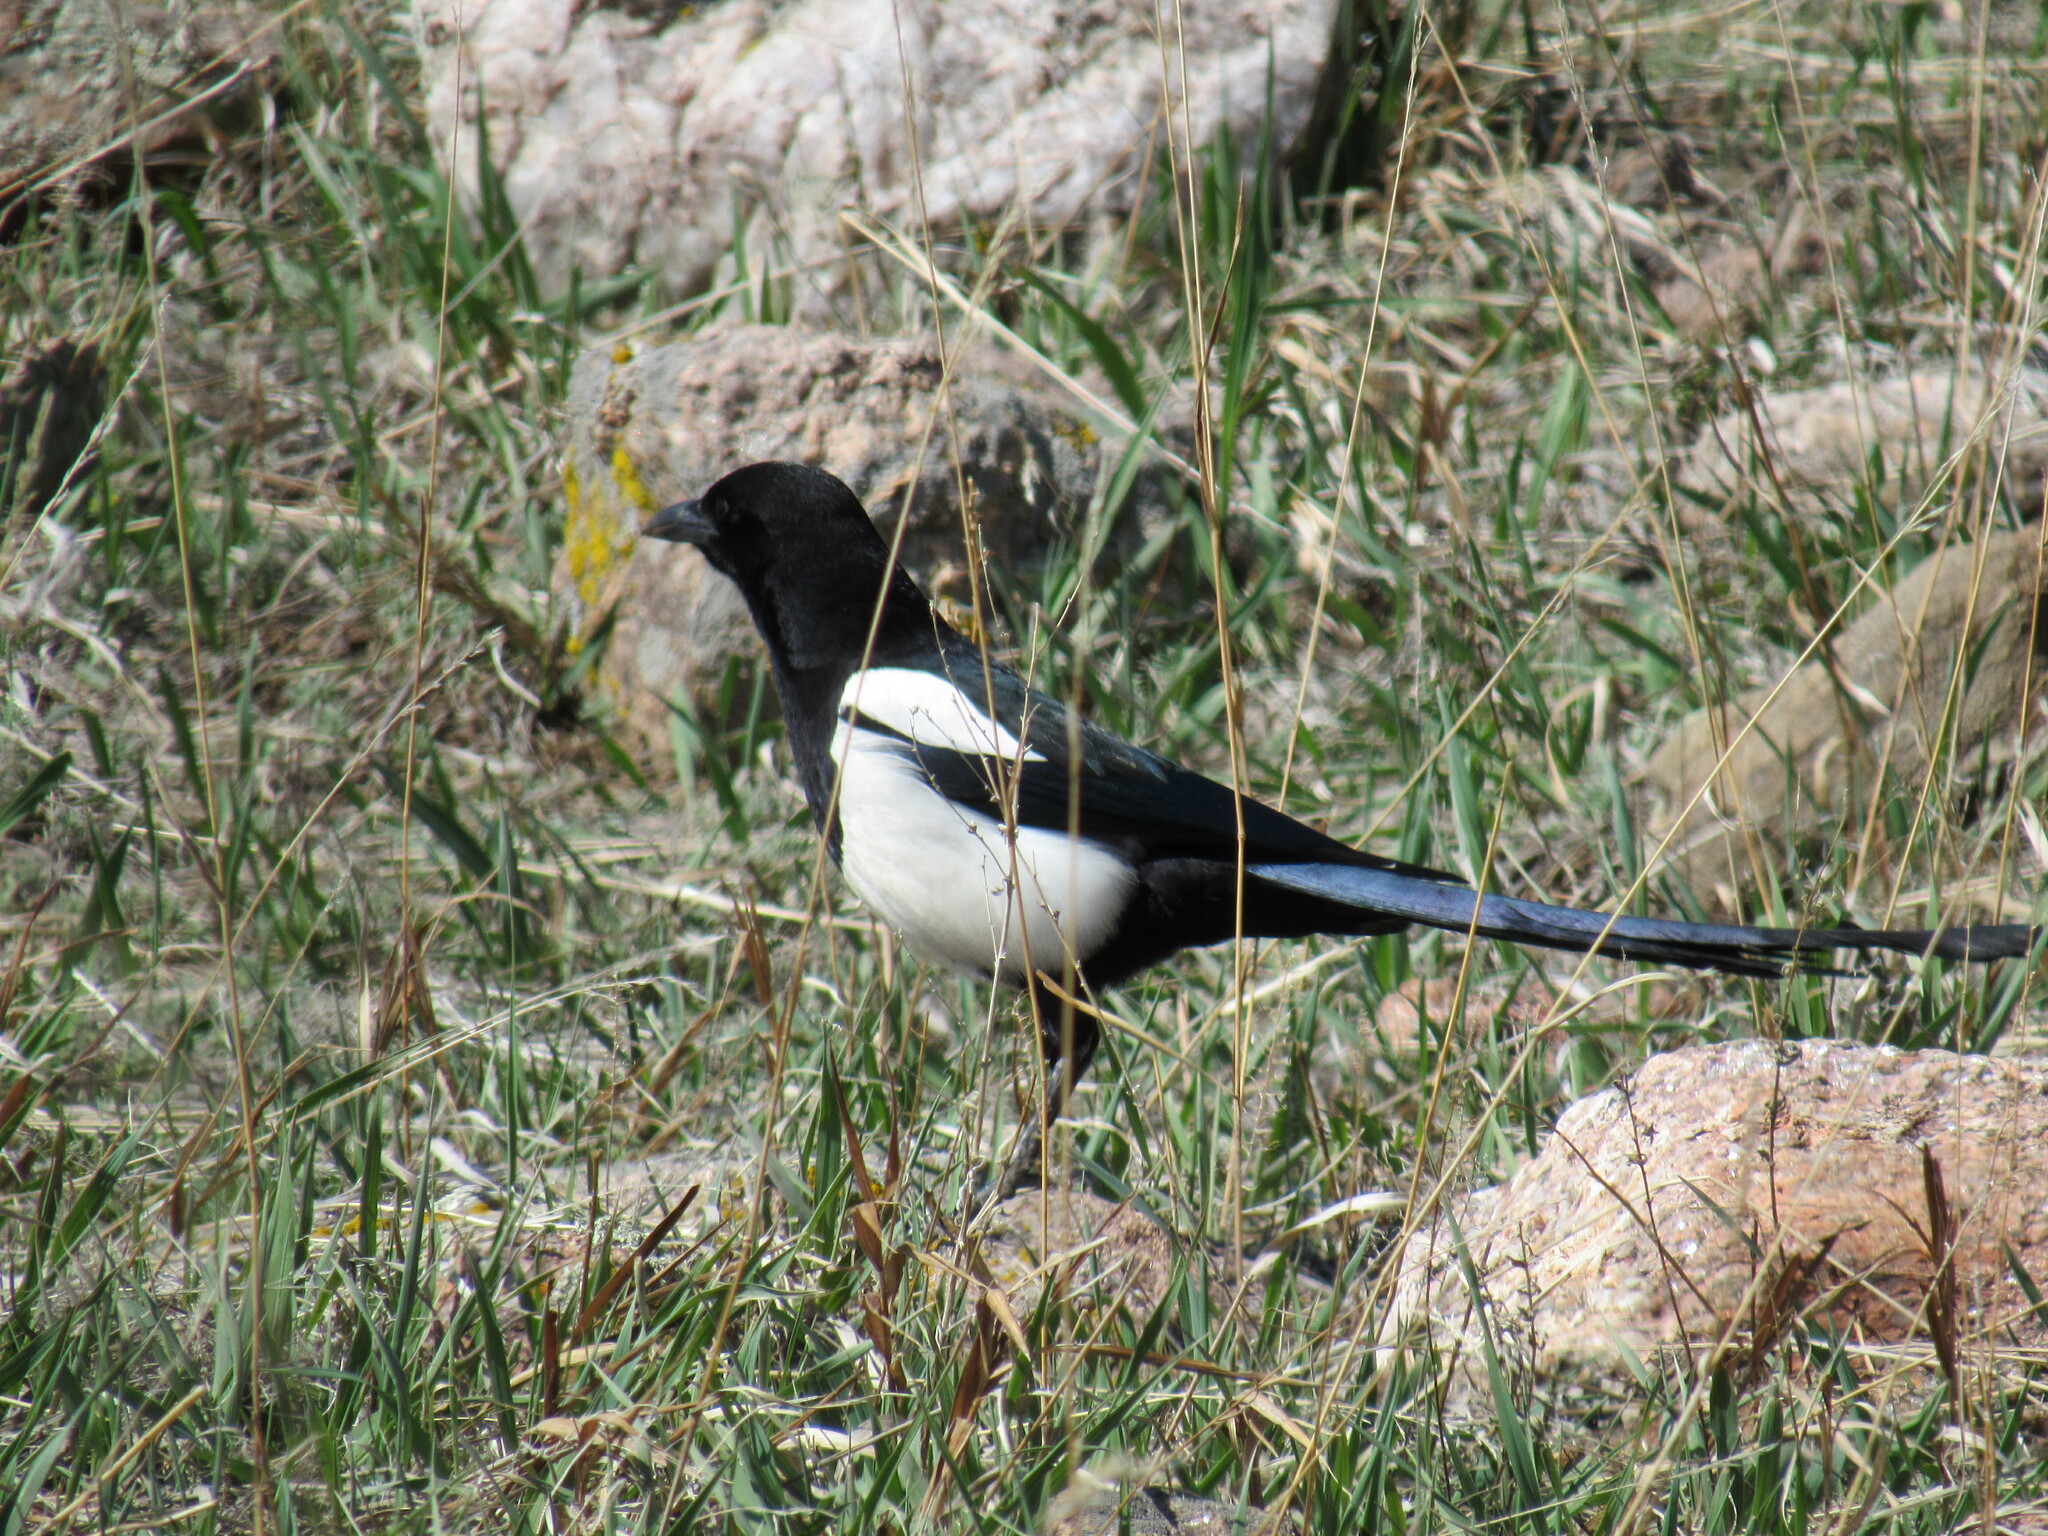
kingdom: Animalia
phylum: Chordata
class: Aves
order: Passeriformes
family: Corvidae
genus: Pica
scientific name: Pica hudsonia
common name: Black-billed magpie
